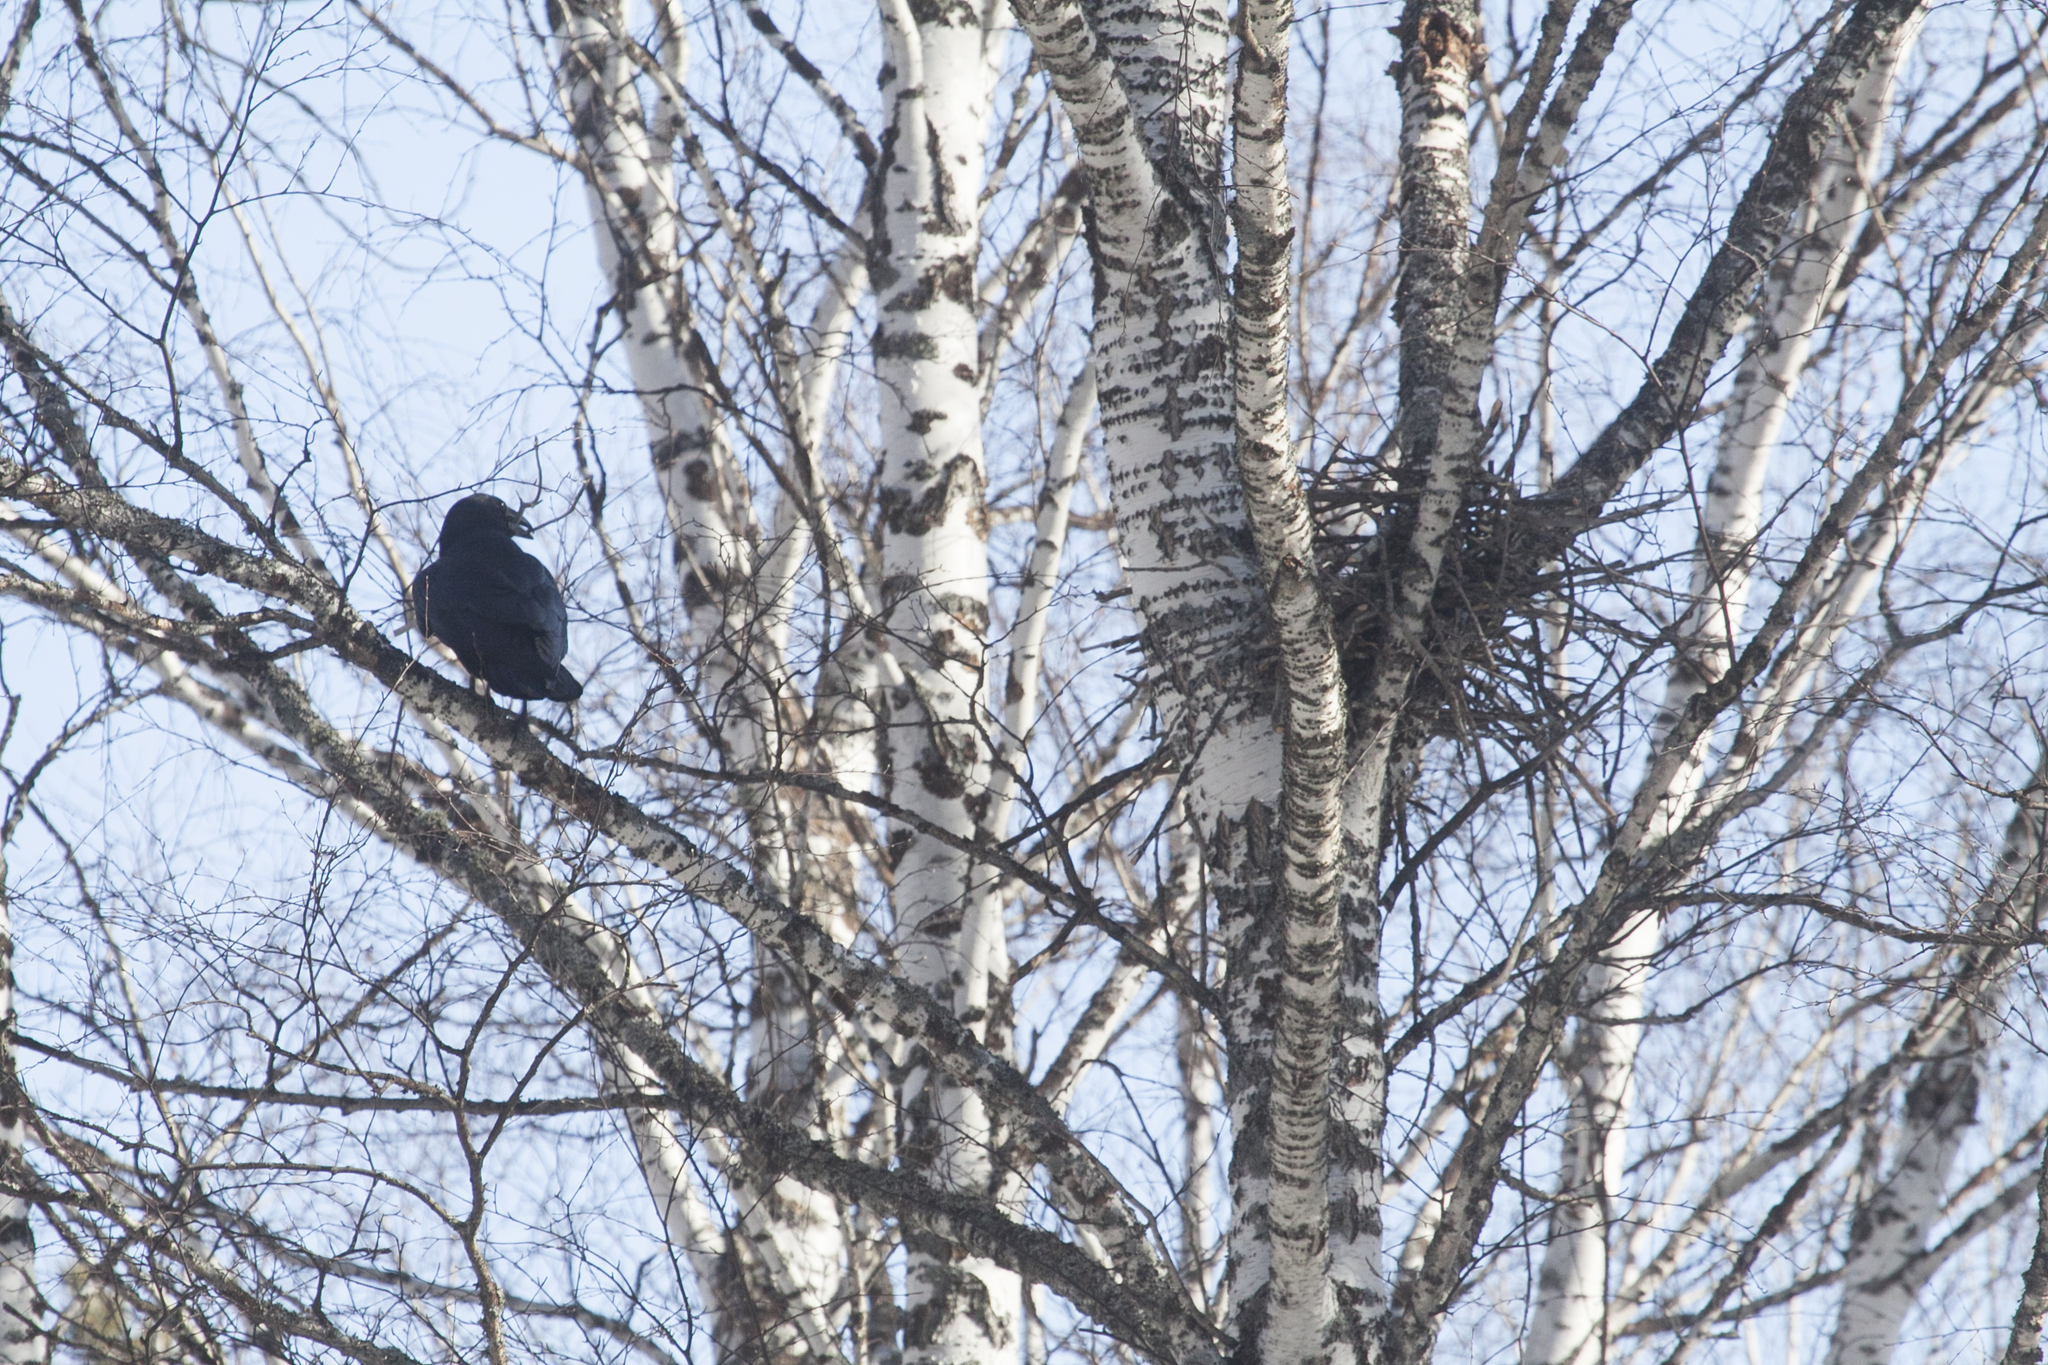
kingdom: Animalia
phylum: Chordata
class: Aves
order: Passeriformes
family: Corvidae
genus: Corvus
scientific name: Corvus corax
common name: Common raven
